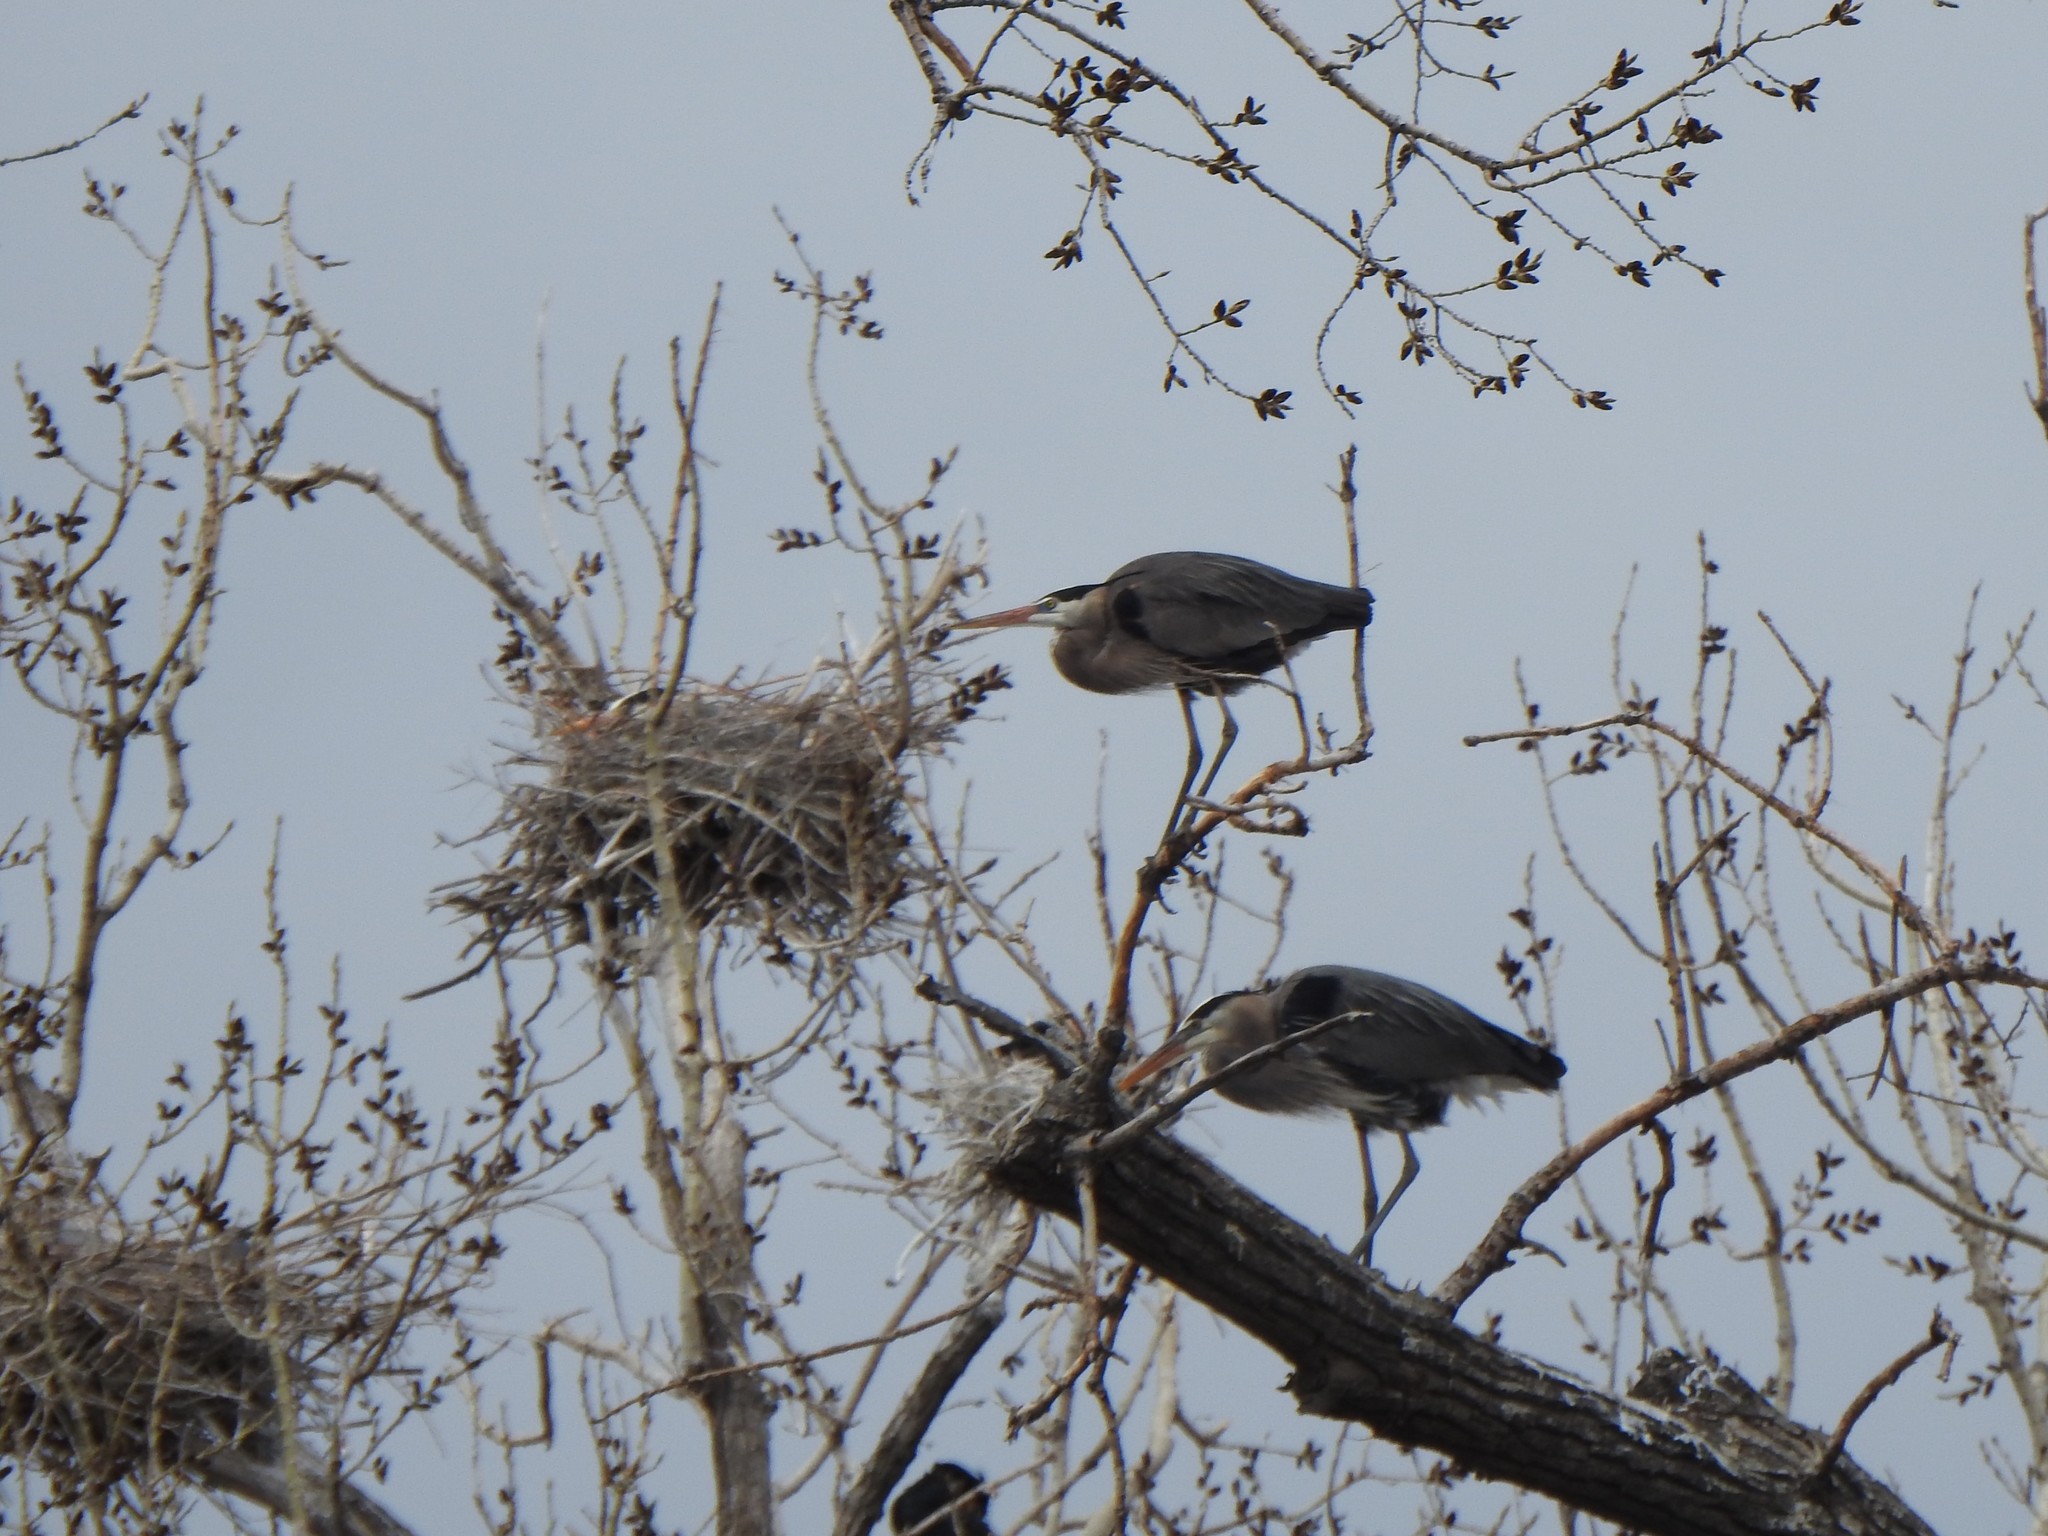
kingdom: Animalia
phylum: Chordata
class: Aves
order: Pelecaniformes
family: Ardeidae
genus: Ardea
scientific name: Ardea herodias
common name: Great blue heron
